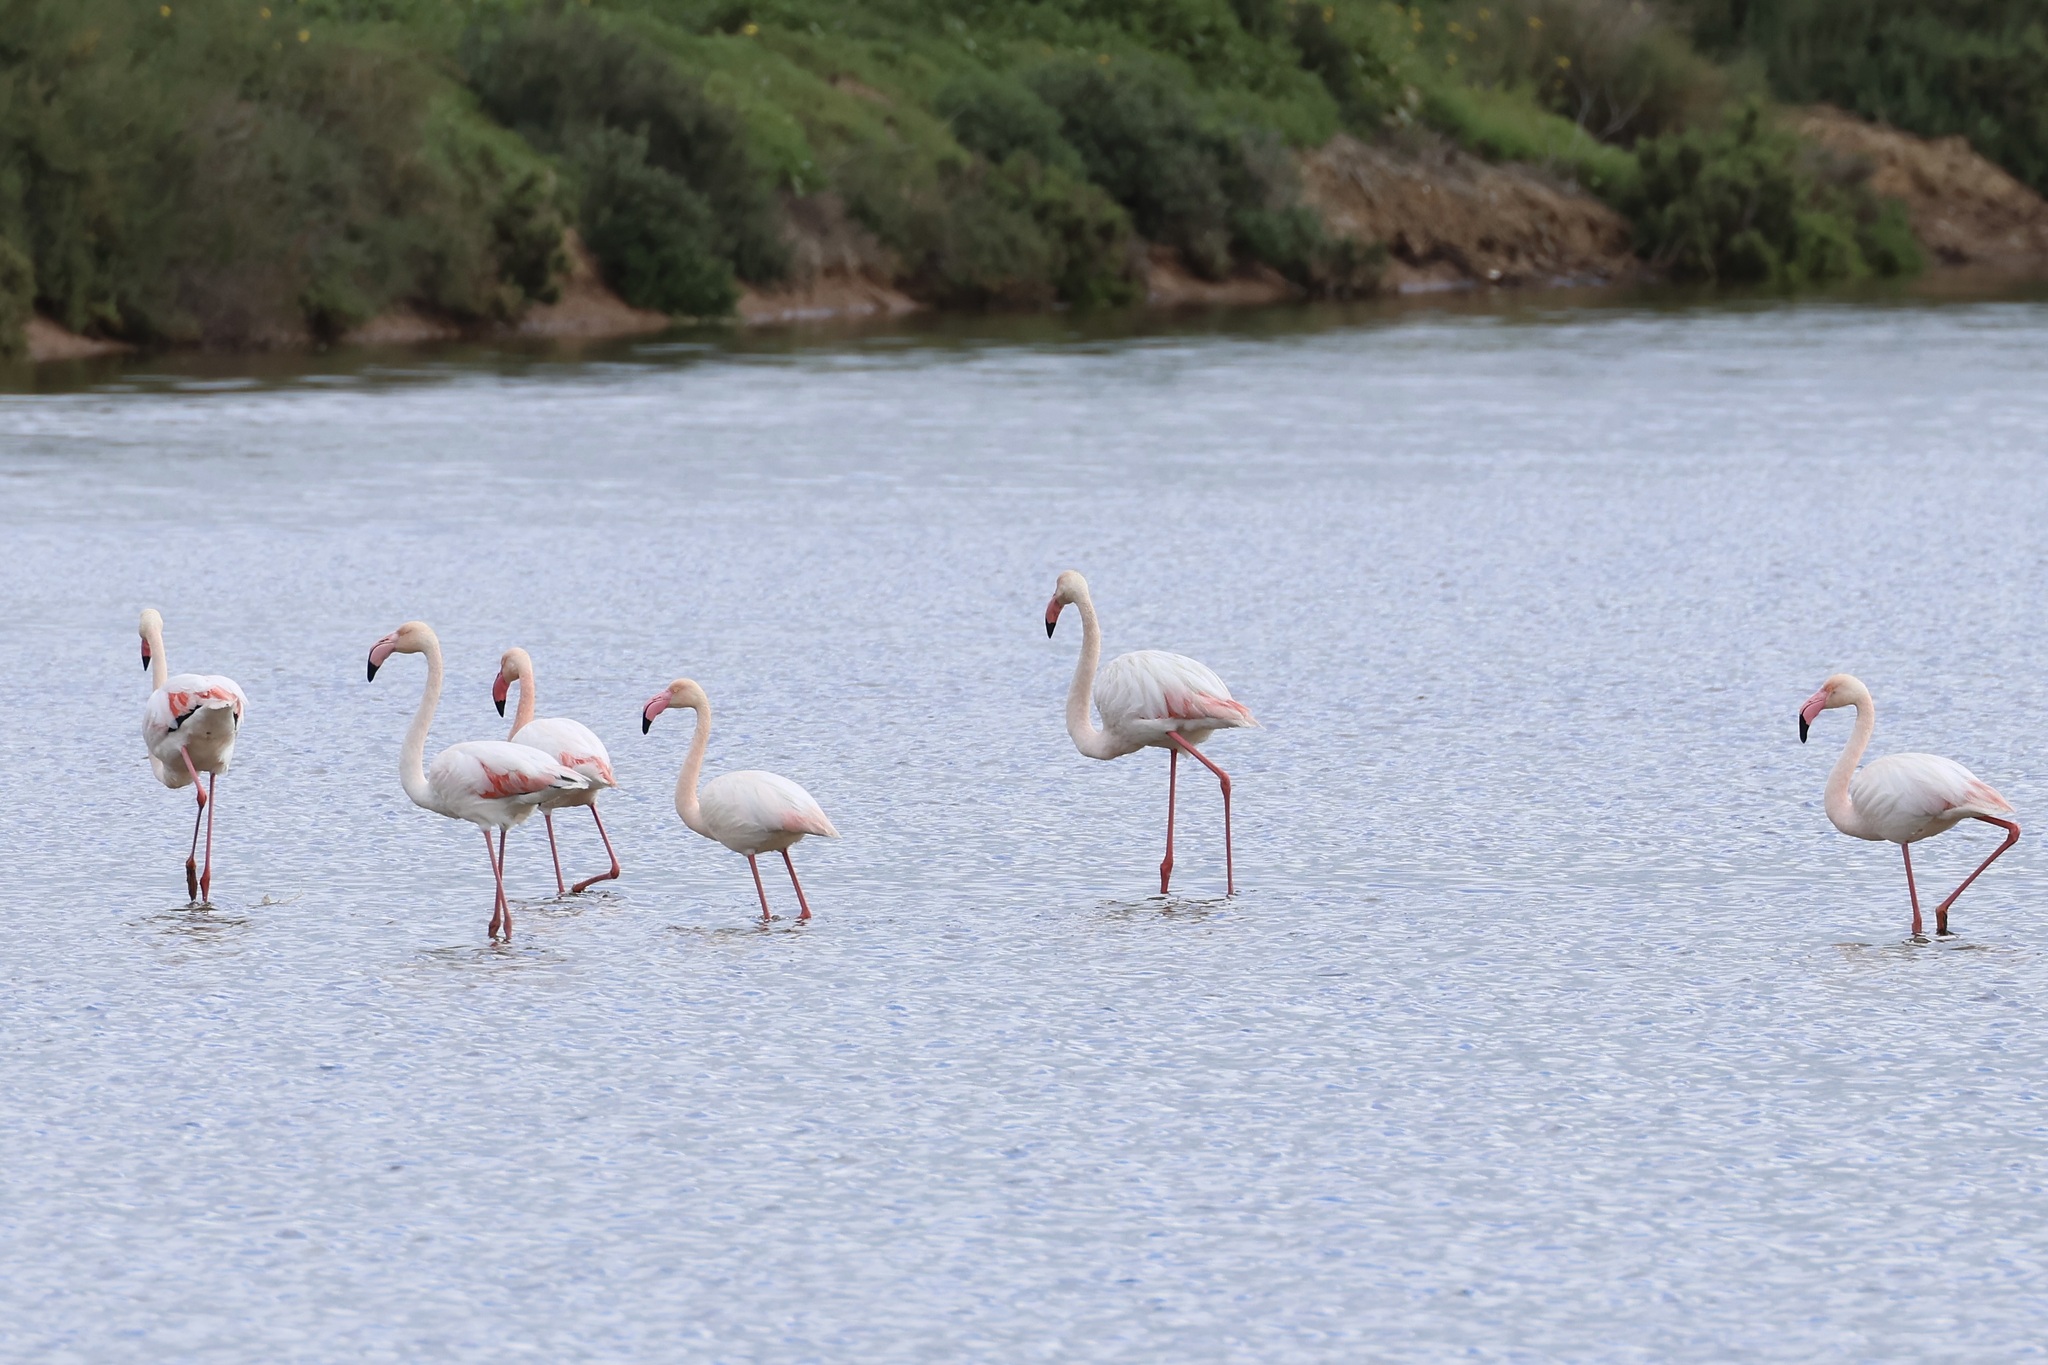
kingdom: Animalia
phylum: Chordata
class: Aves
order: Phoenicopteriformes
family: Phoenicopteridae
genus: Phoenicopterus
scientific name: Phoenicopterus roseus
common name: Greater flamingo
